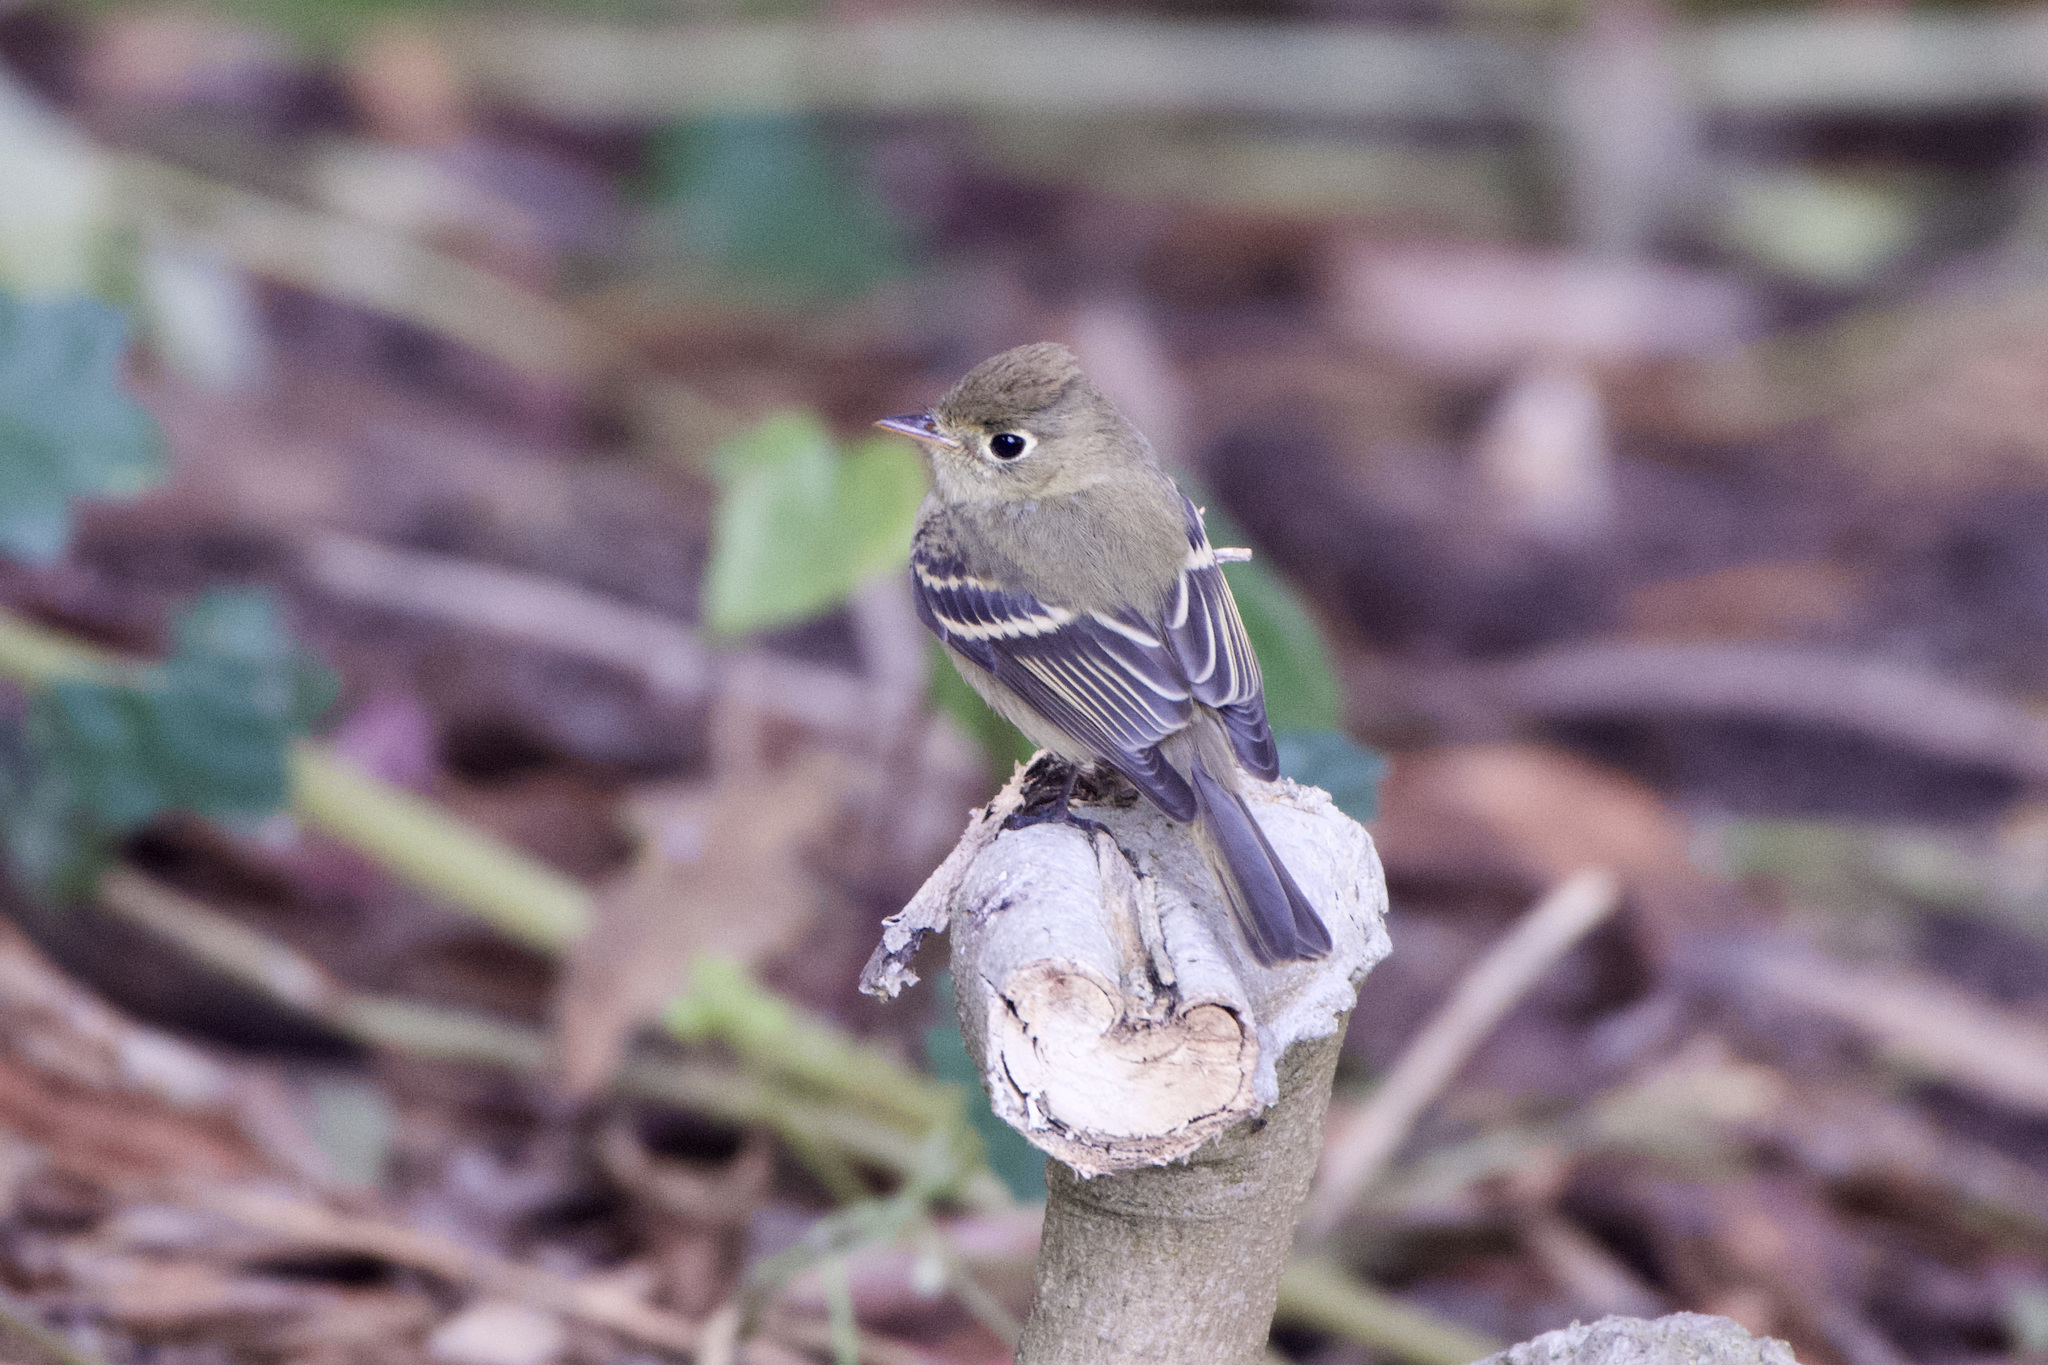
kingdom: Animalia
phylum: Chordata
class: Aves
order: Passeriformes
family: Tyrannidae
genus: Empidonax
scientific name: Empidonax difficilis
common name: Pacific-slope flycatcher
